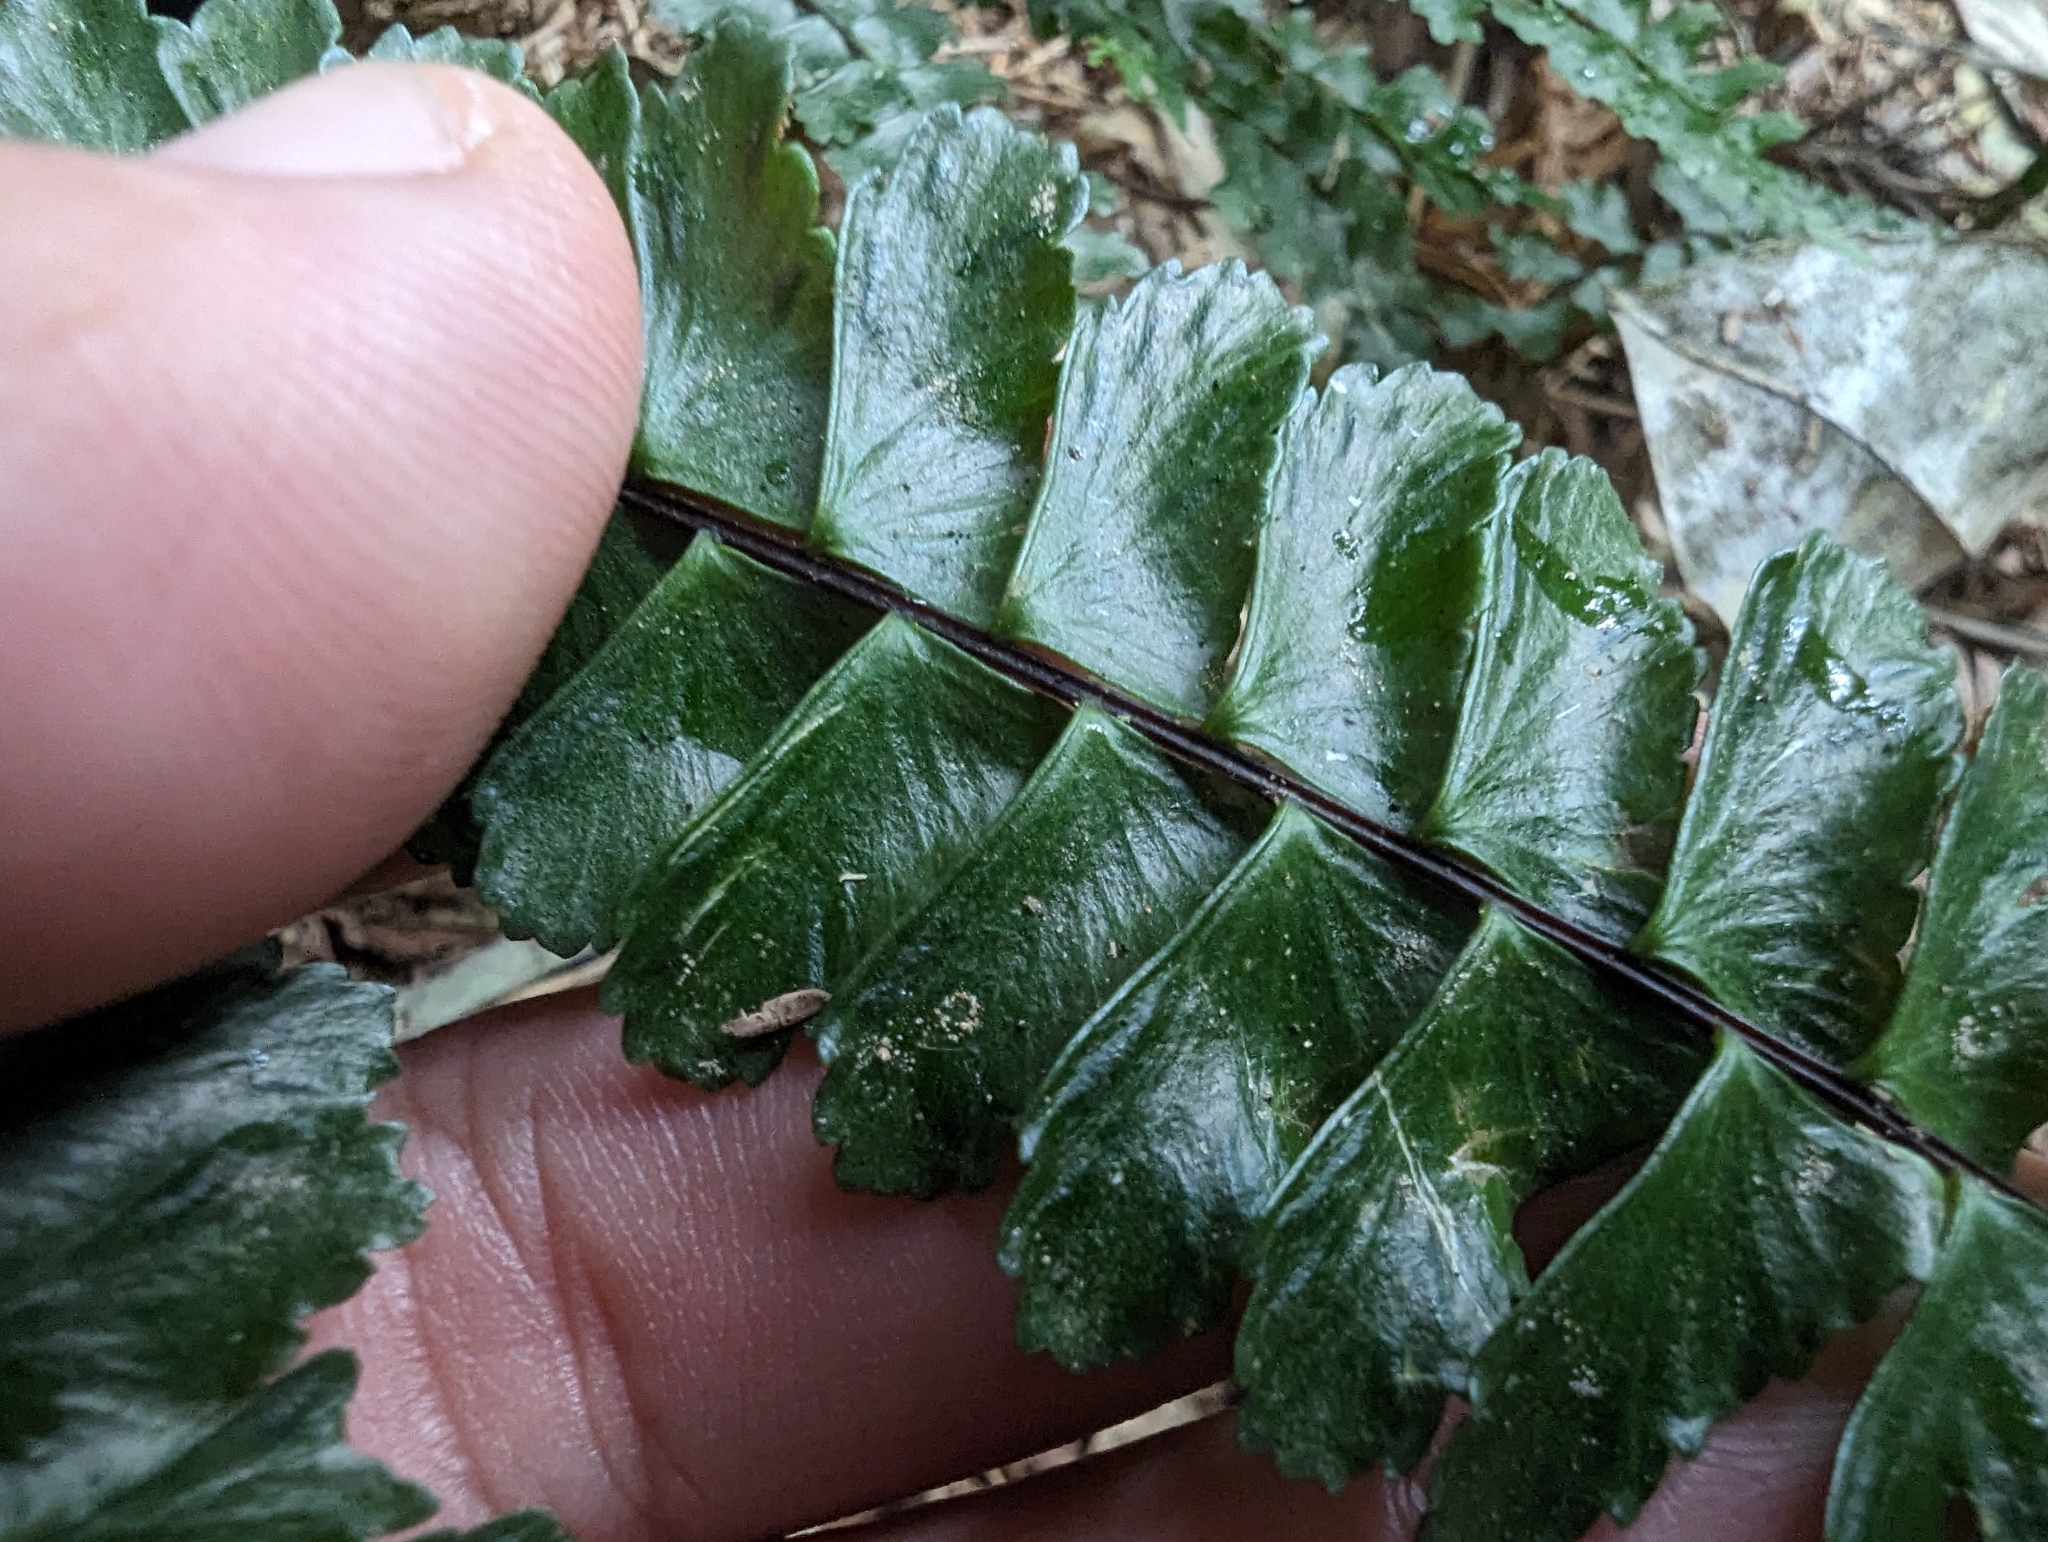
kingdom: Plantae
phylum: Tracheophyta
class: Polypodiopsida
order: Polypodiales
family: Aspleniaceae
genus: Asplenium
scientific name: Asplenium normale
